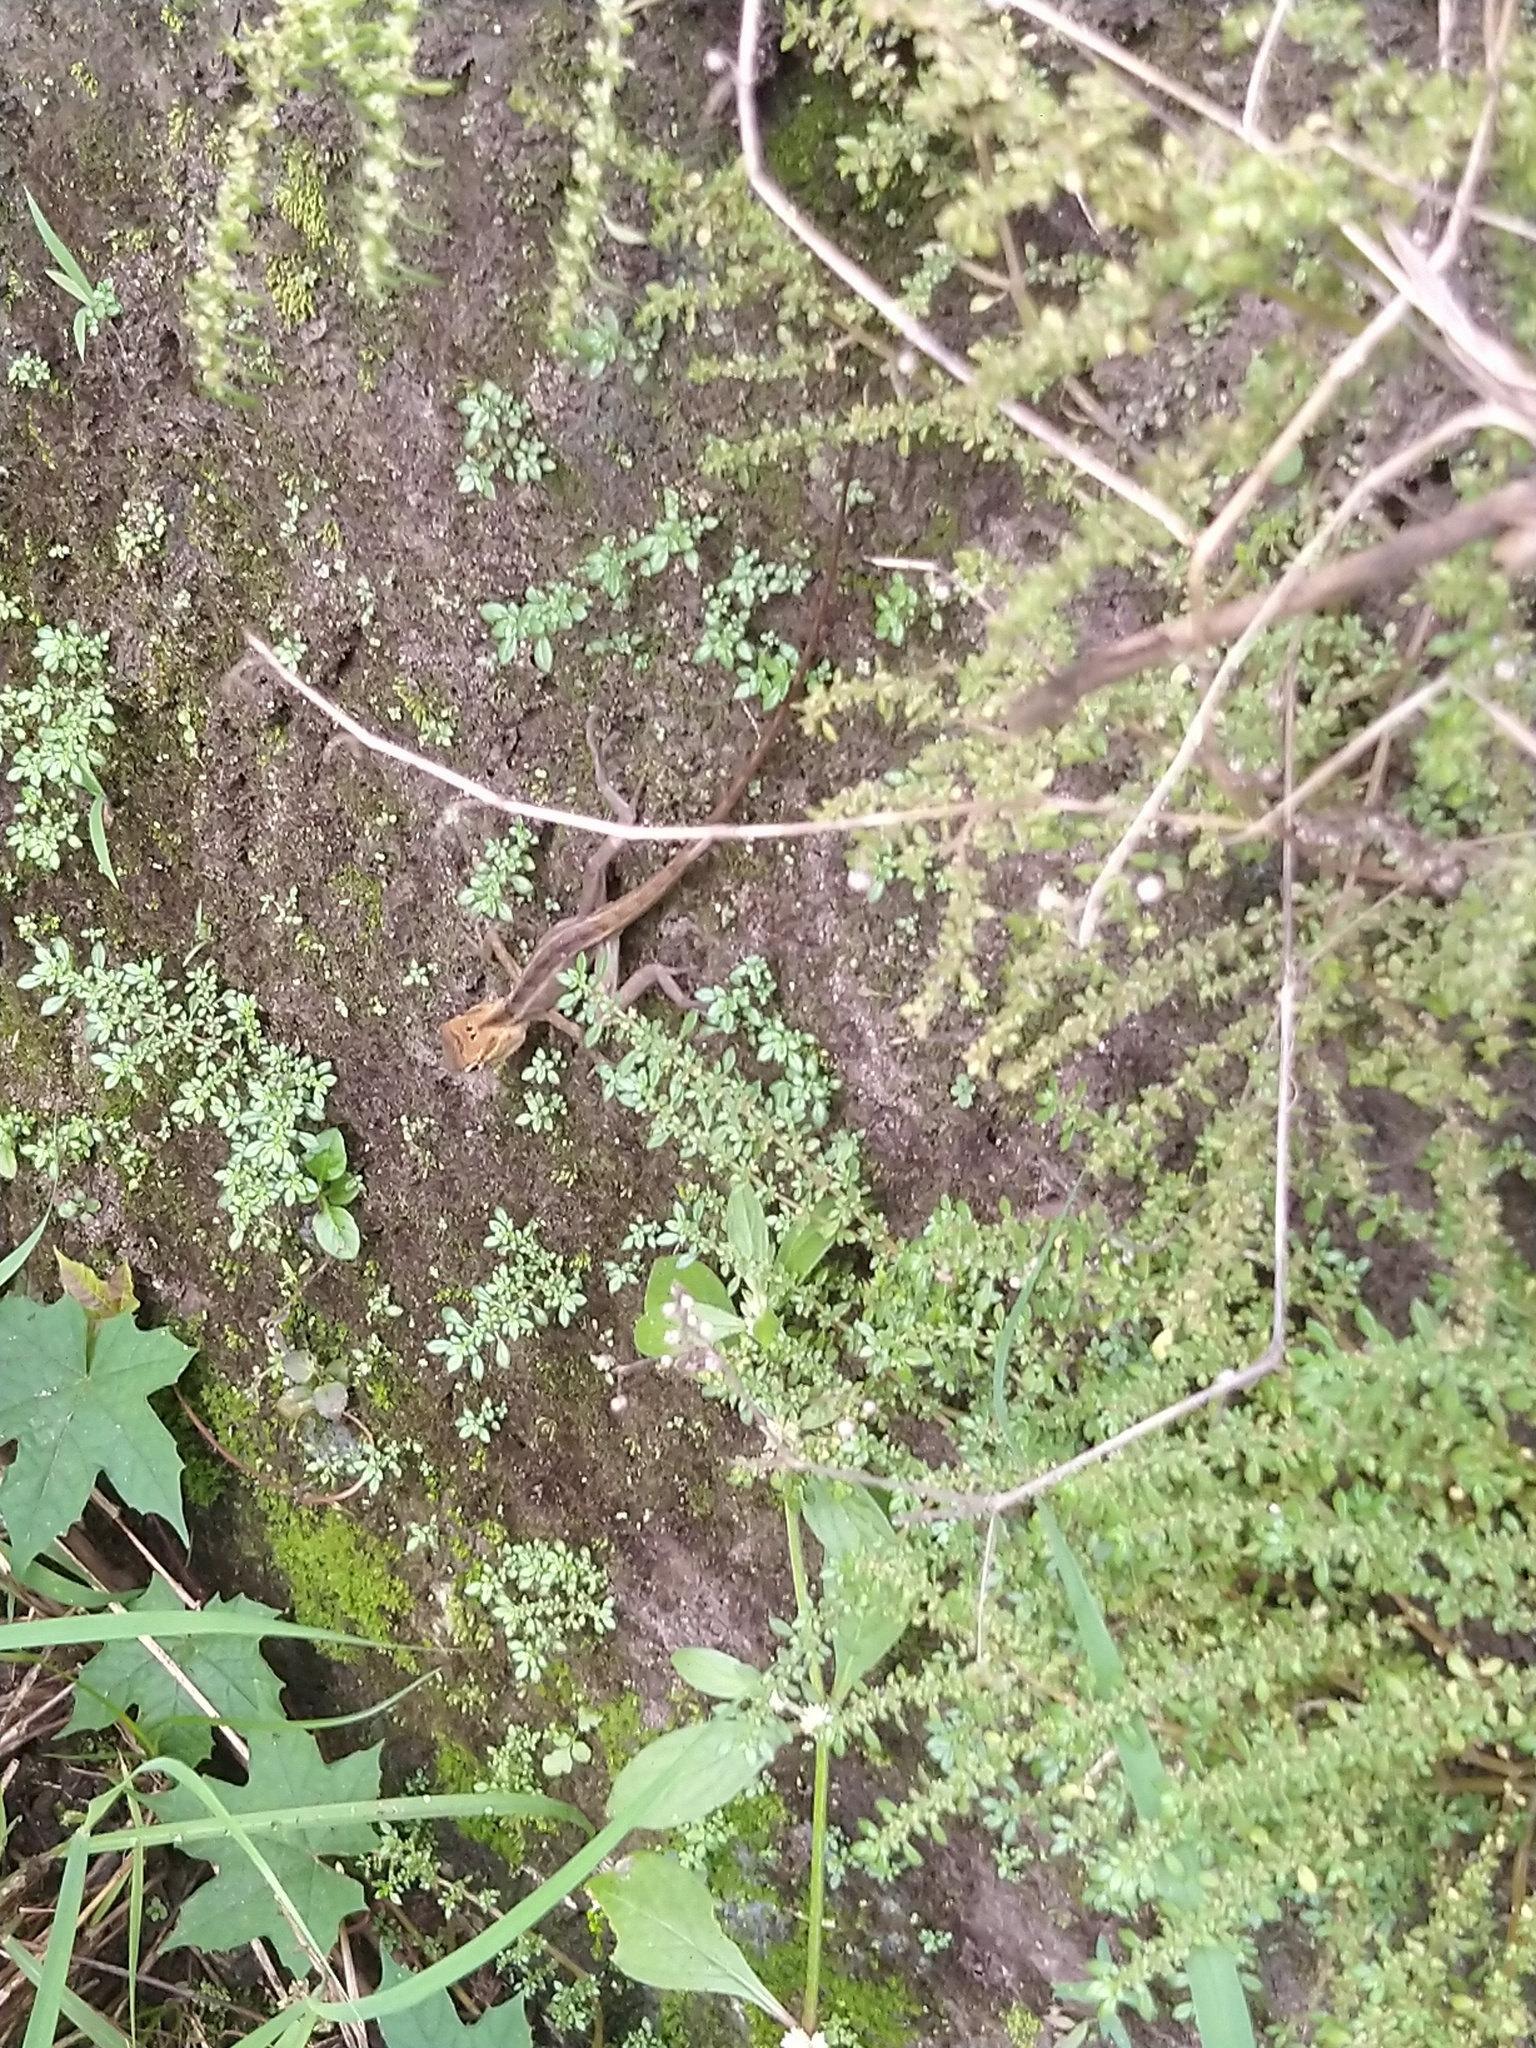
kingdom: Animalia
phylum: Chordata
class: Squamata
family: Agamidae
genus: Calotes
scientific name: Calotes versicolor
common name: Oriental garden lizard
